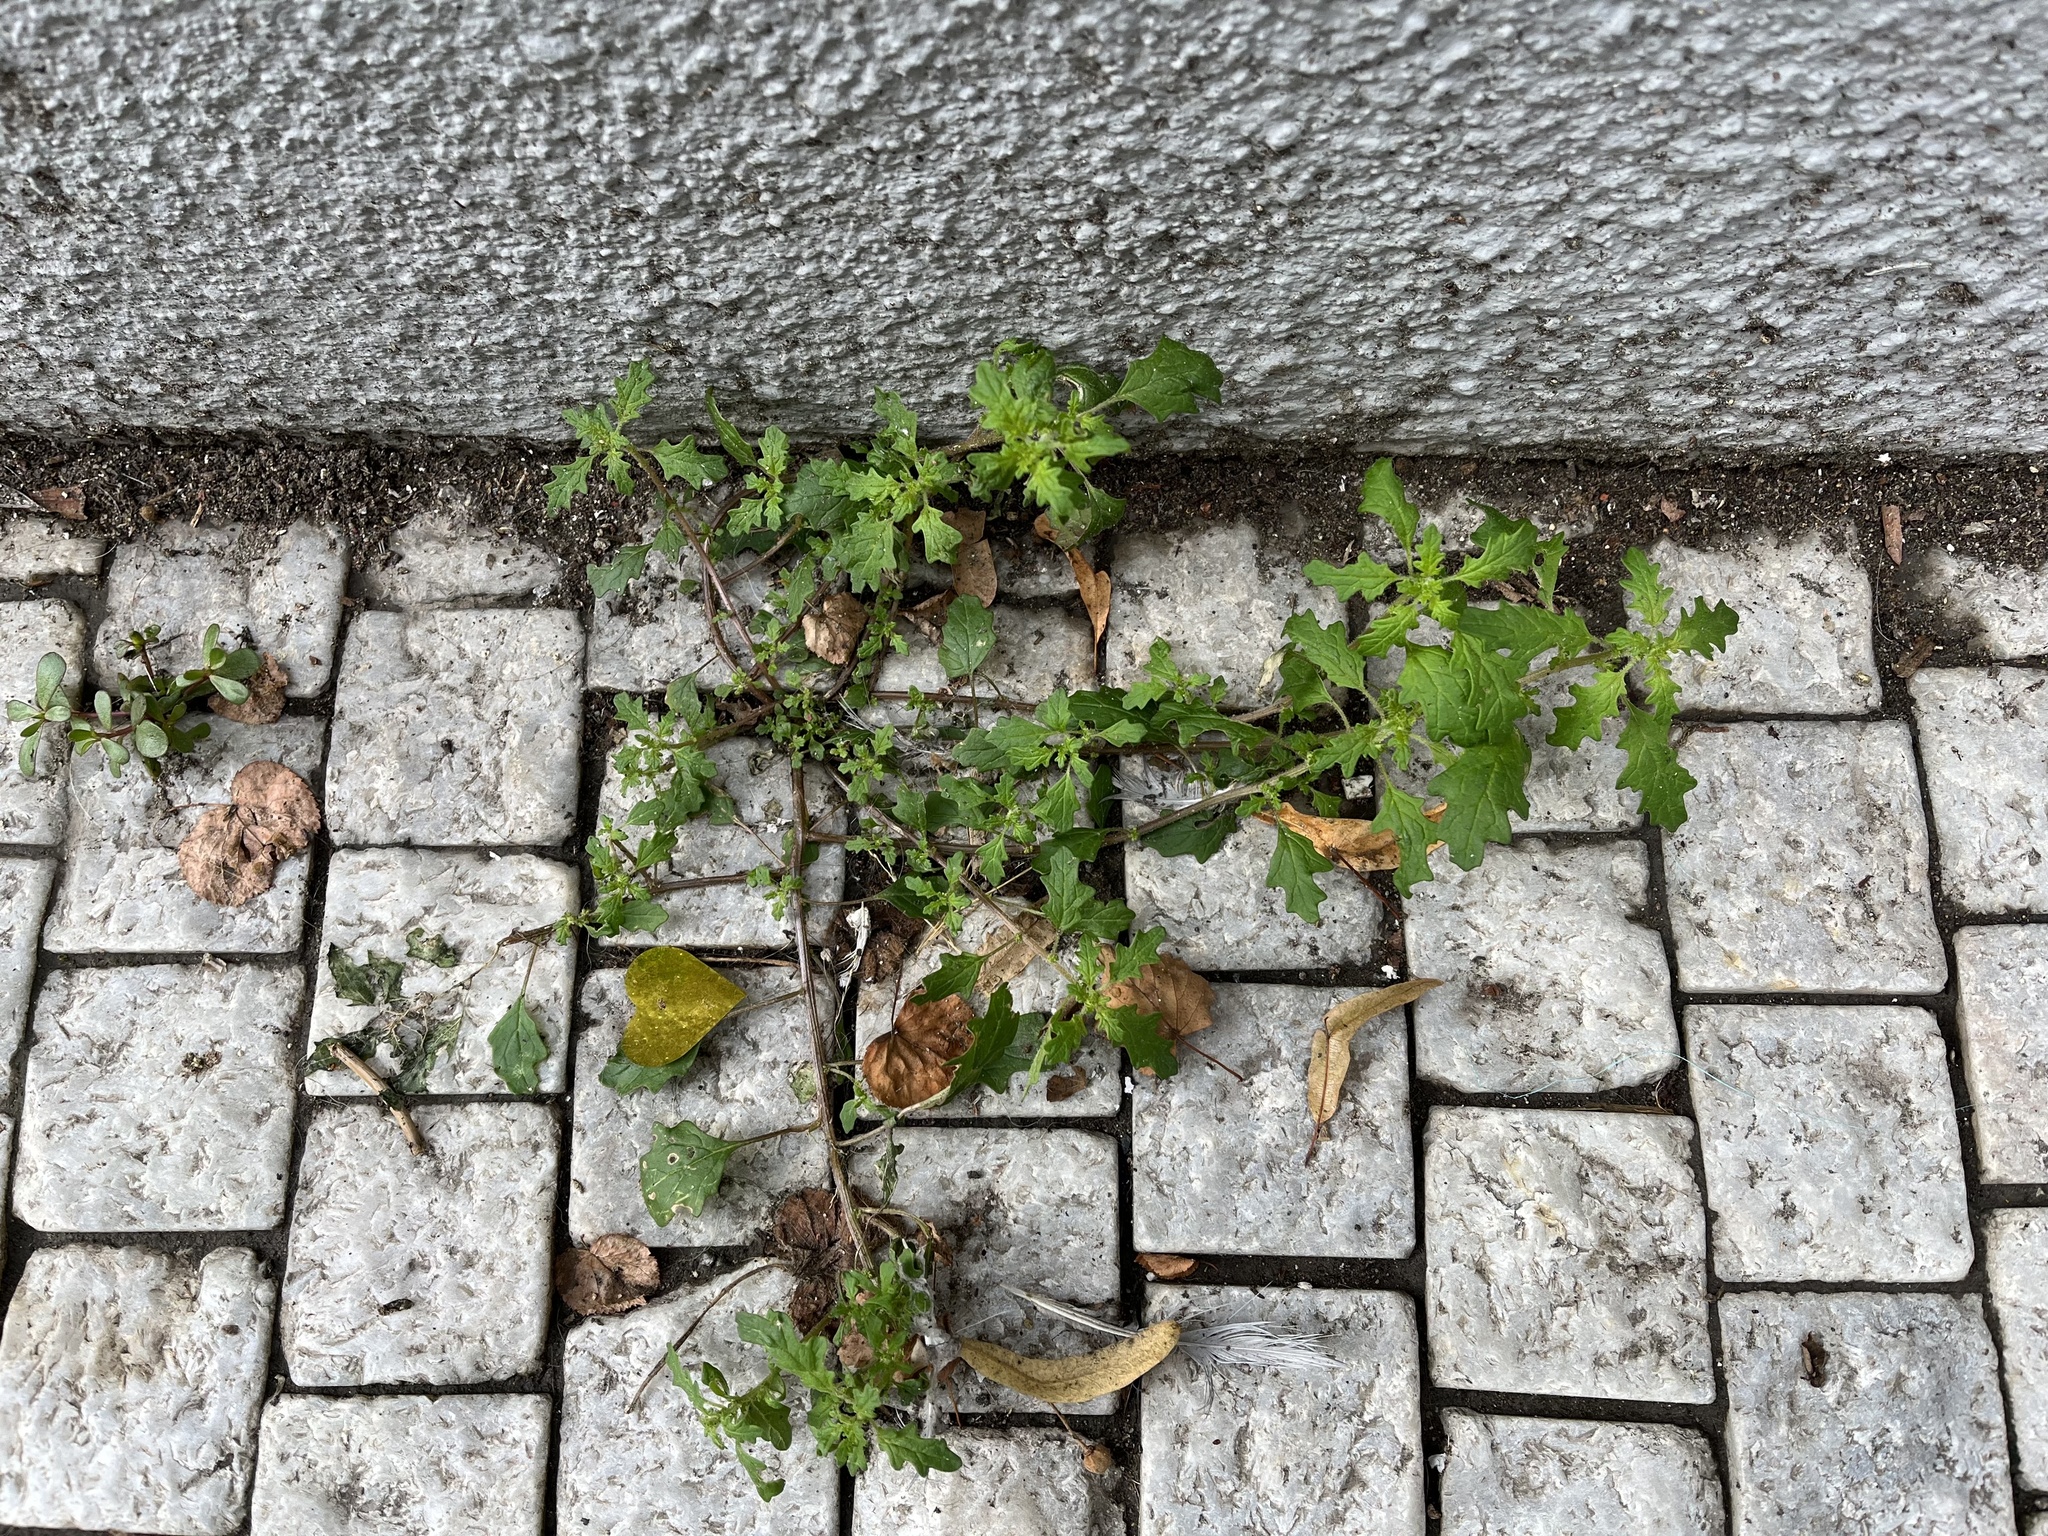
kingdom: Plantae
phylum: Tracheophyta
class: Magnoliopsida
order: Caryophyllales
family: Amaranthaceae
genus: Dysphania
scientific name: Dysphania pumilio
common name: Clammy goosefoot
